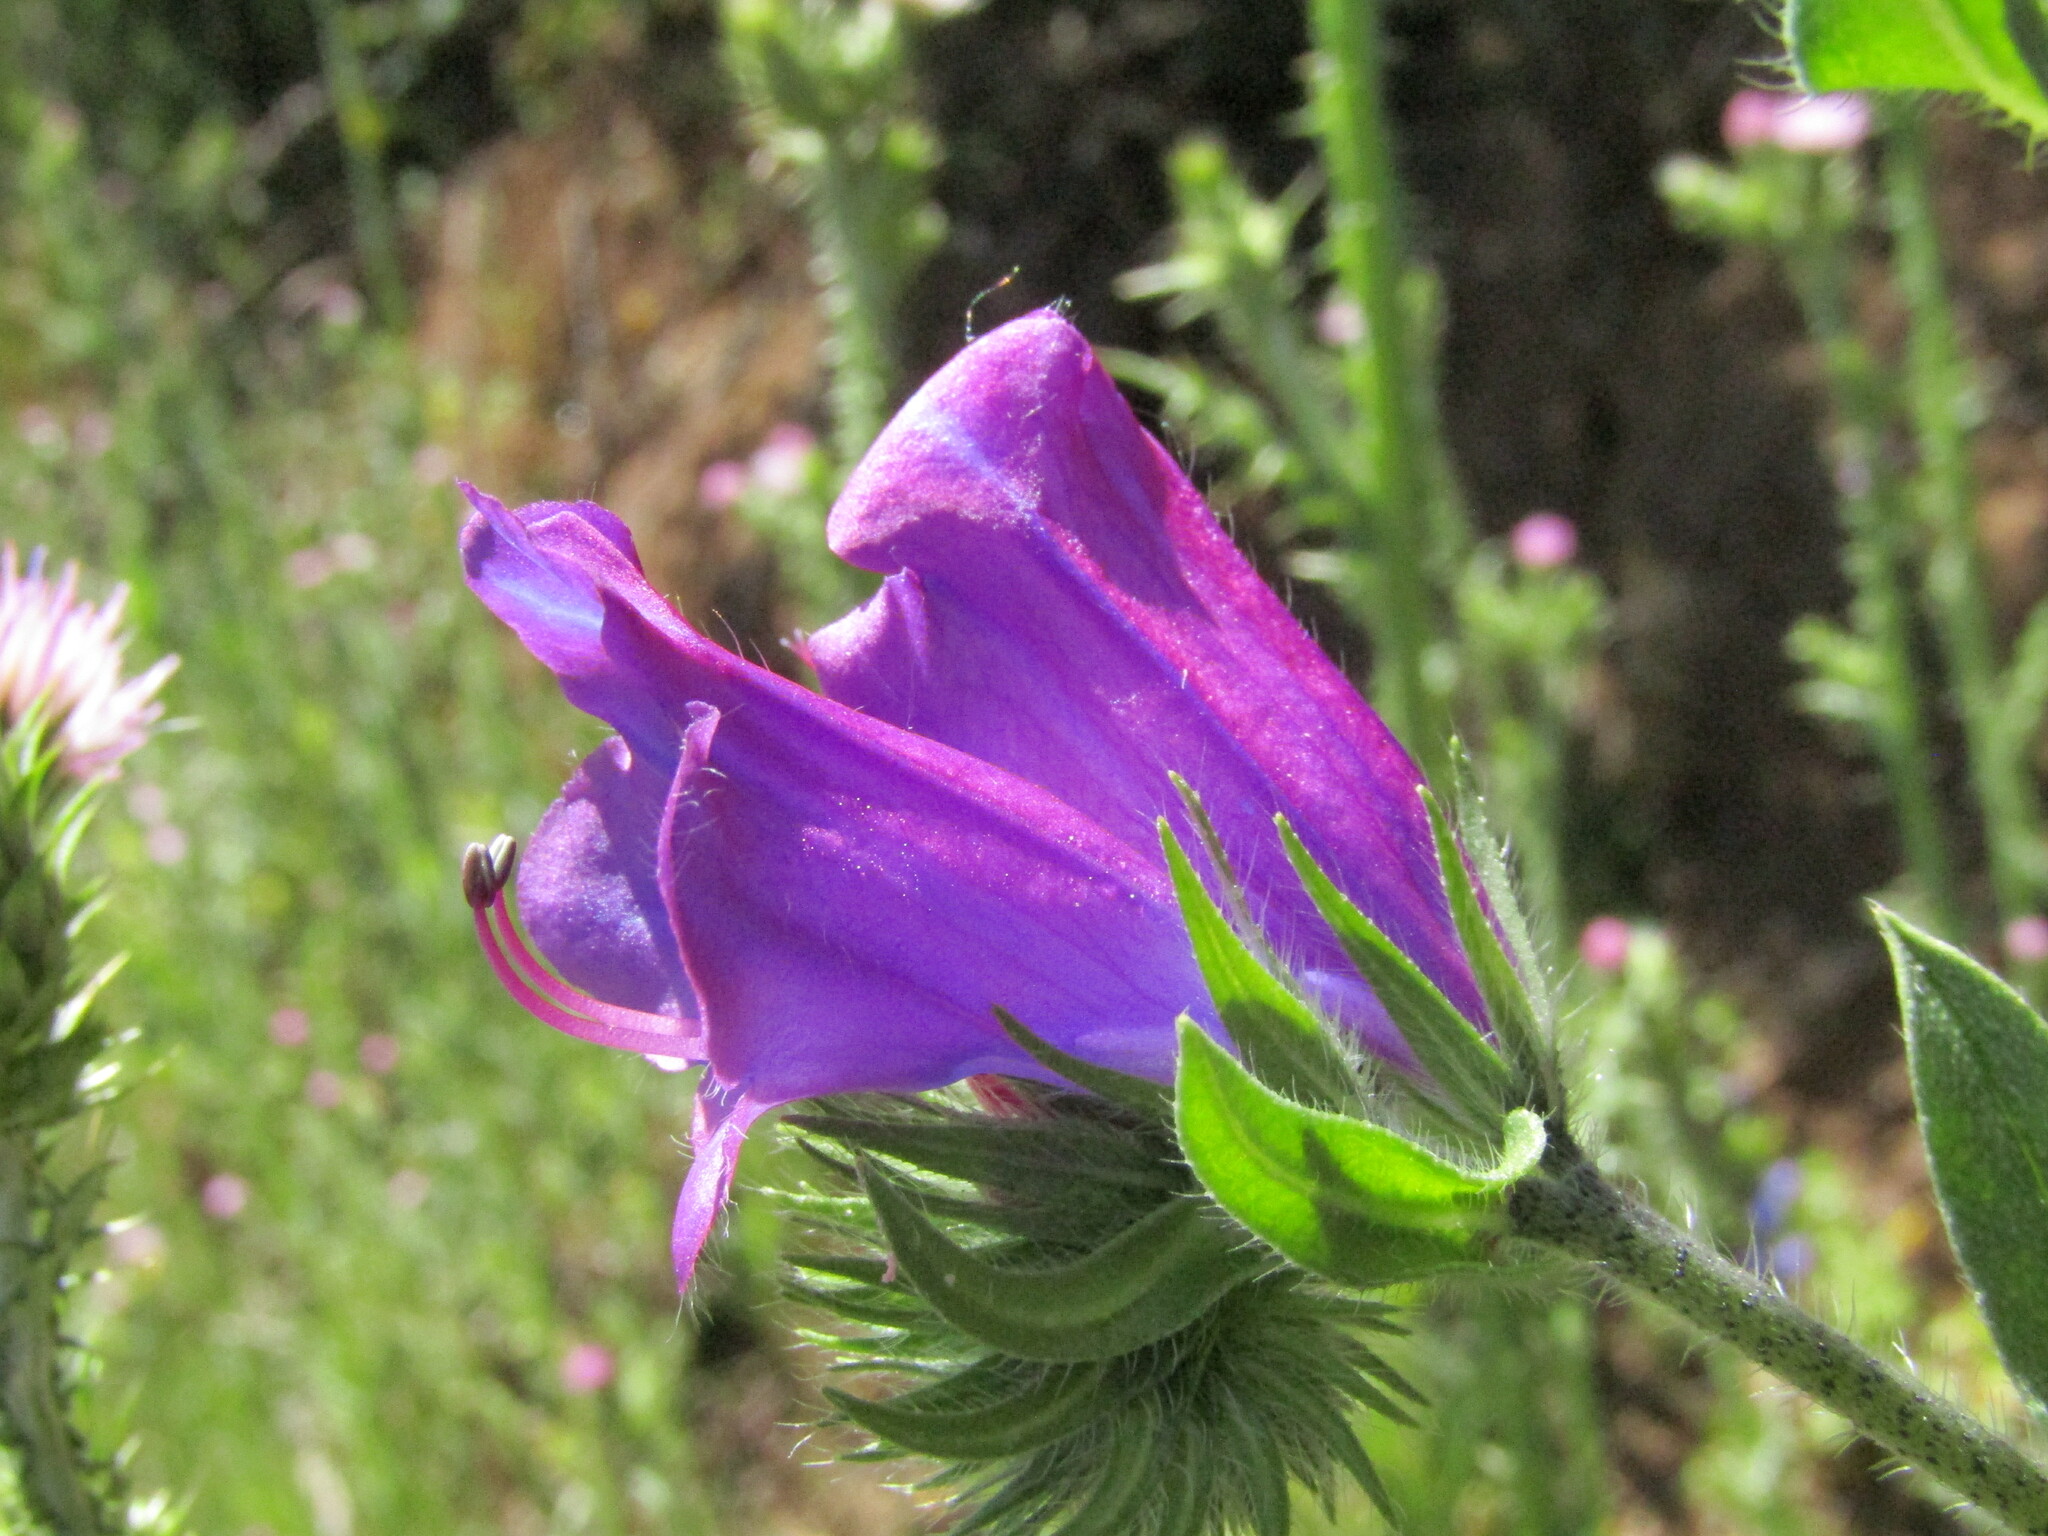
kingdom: Plantae
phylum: Tracheophyta
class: Magnoliopsida
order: Boraginales
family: Boraginaceae
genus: Echium
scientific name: Echium plantagineum
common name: Purple viper's-bugloss
